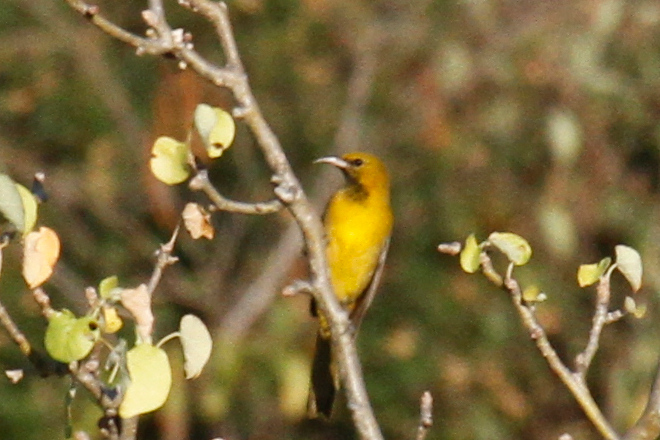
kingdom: Animalia
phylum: Chordata
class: Aves
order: Passeriformes
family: Icteridae
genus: Icterus
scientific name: Icterus cucullatus
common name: Hooded oriole
